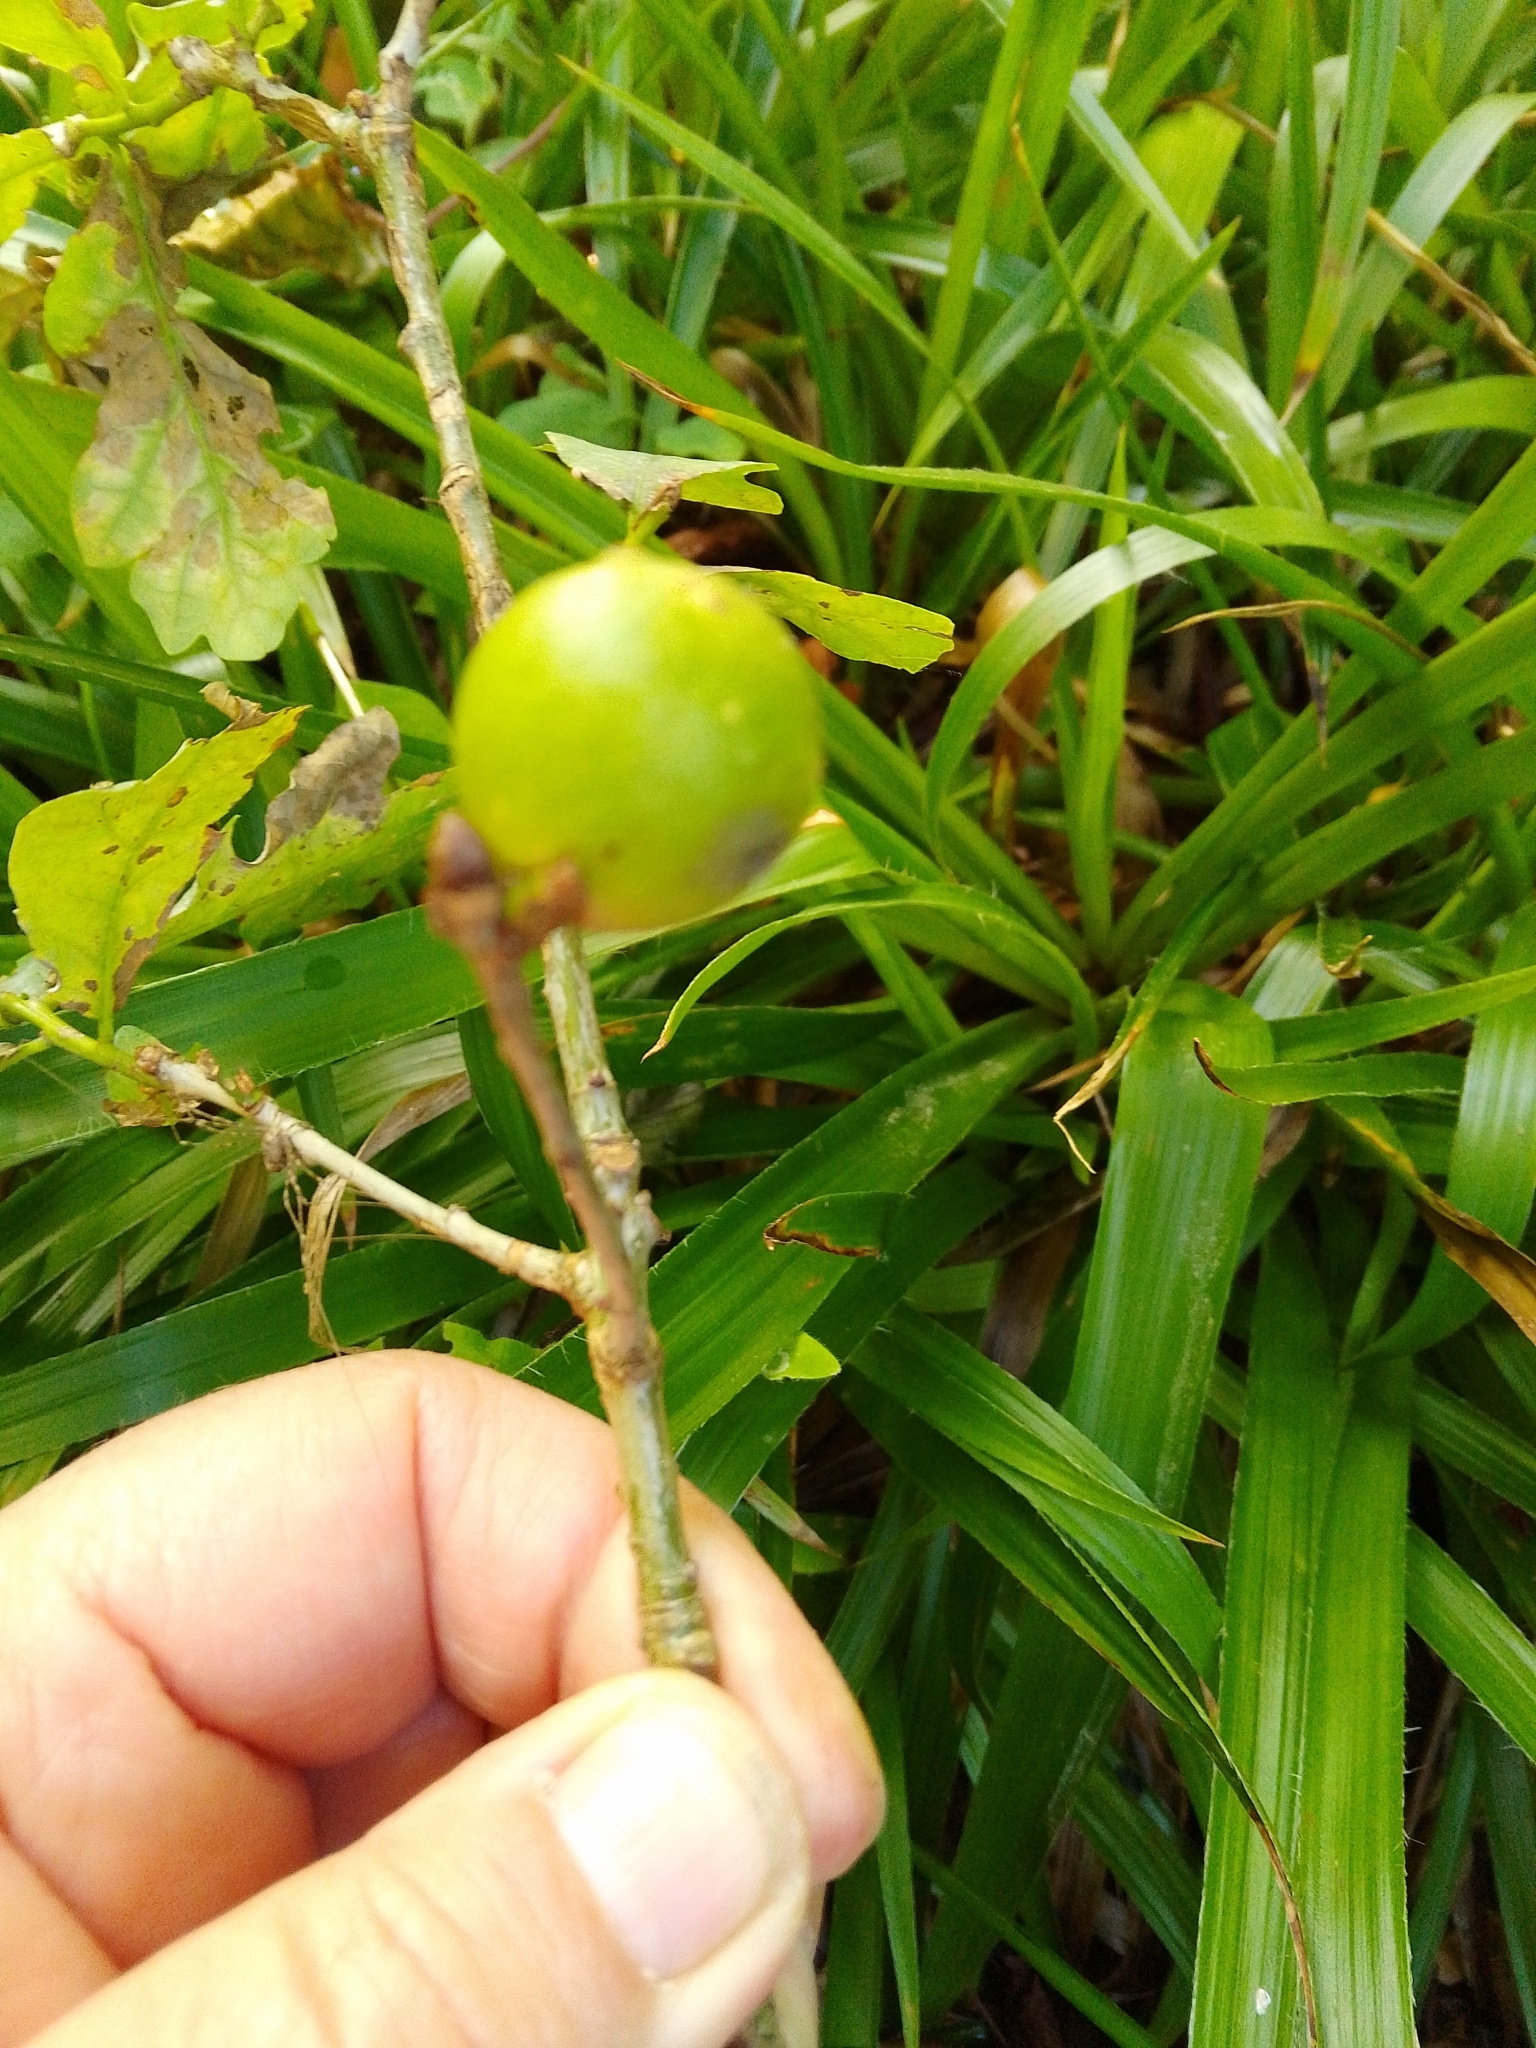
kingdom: Animalia
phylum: Arthropoda
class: Insecta
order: Hymenoptera
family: Cynipidae
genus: Andricus
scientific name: Andricus kollari
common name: Marble gall
